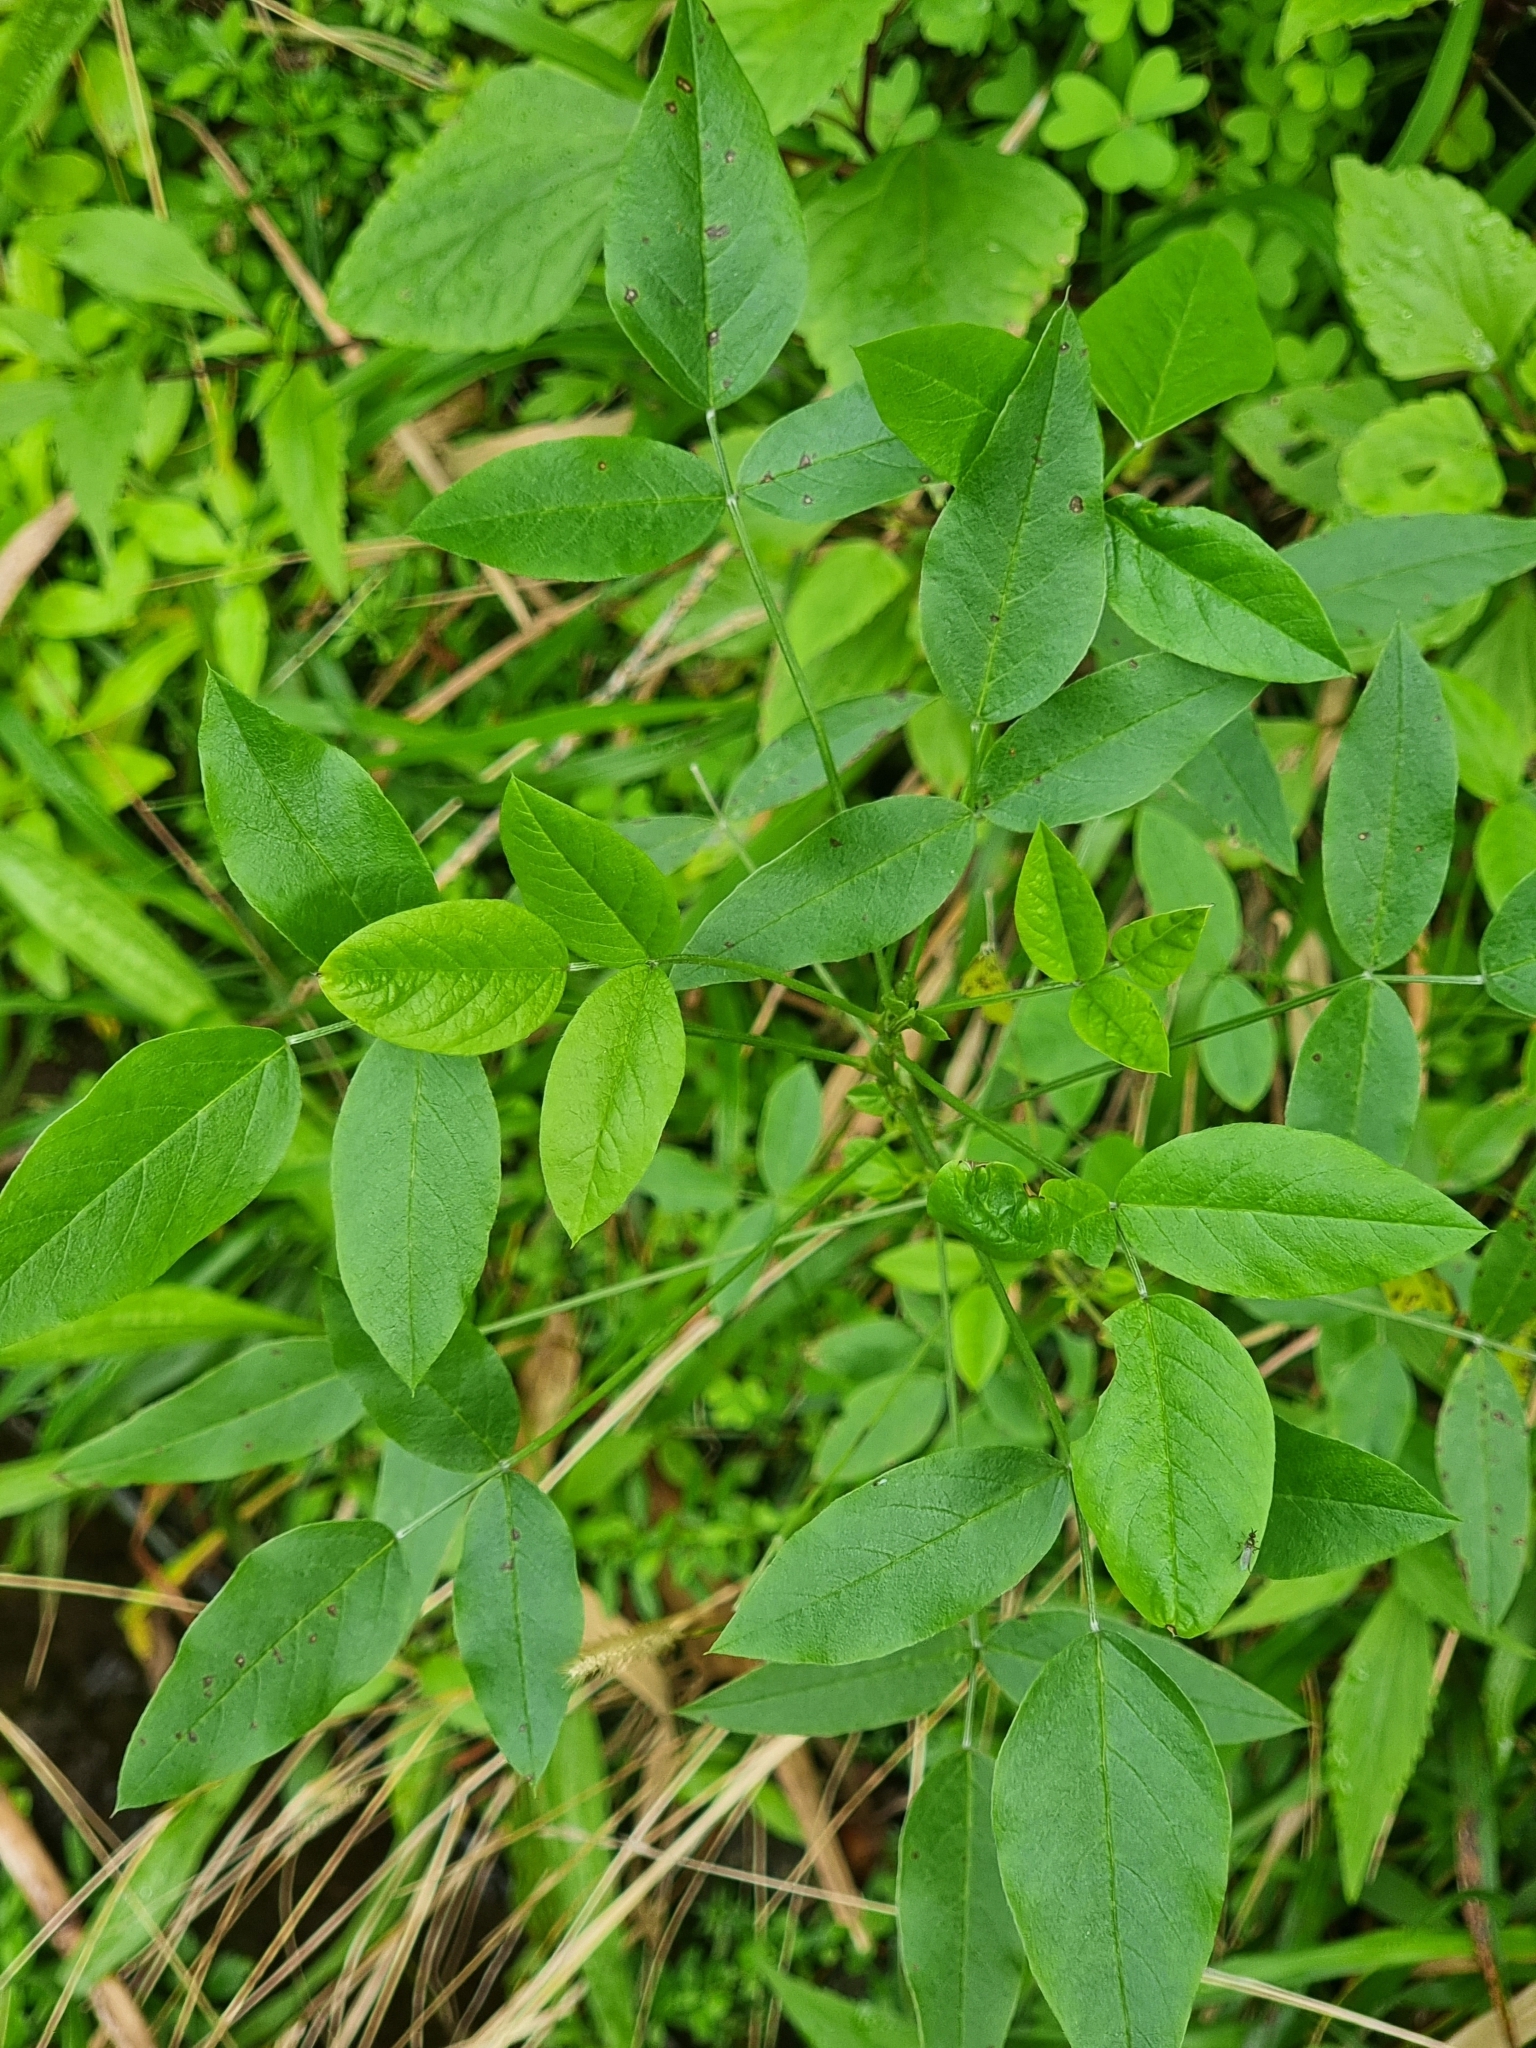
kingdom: Plantae
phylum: Tracheophyta
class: Magnoliopsida
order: Fabales
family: Fabaceae
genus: Bituminaria
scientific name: Bituminaria bituminosa
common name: Arabian pea
